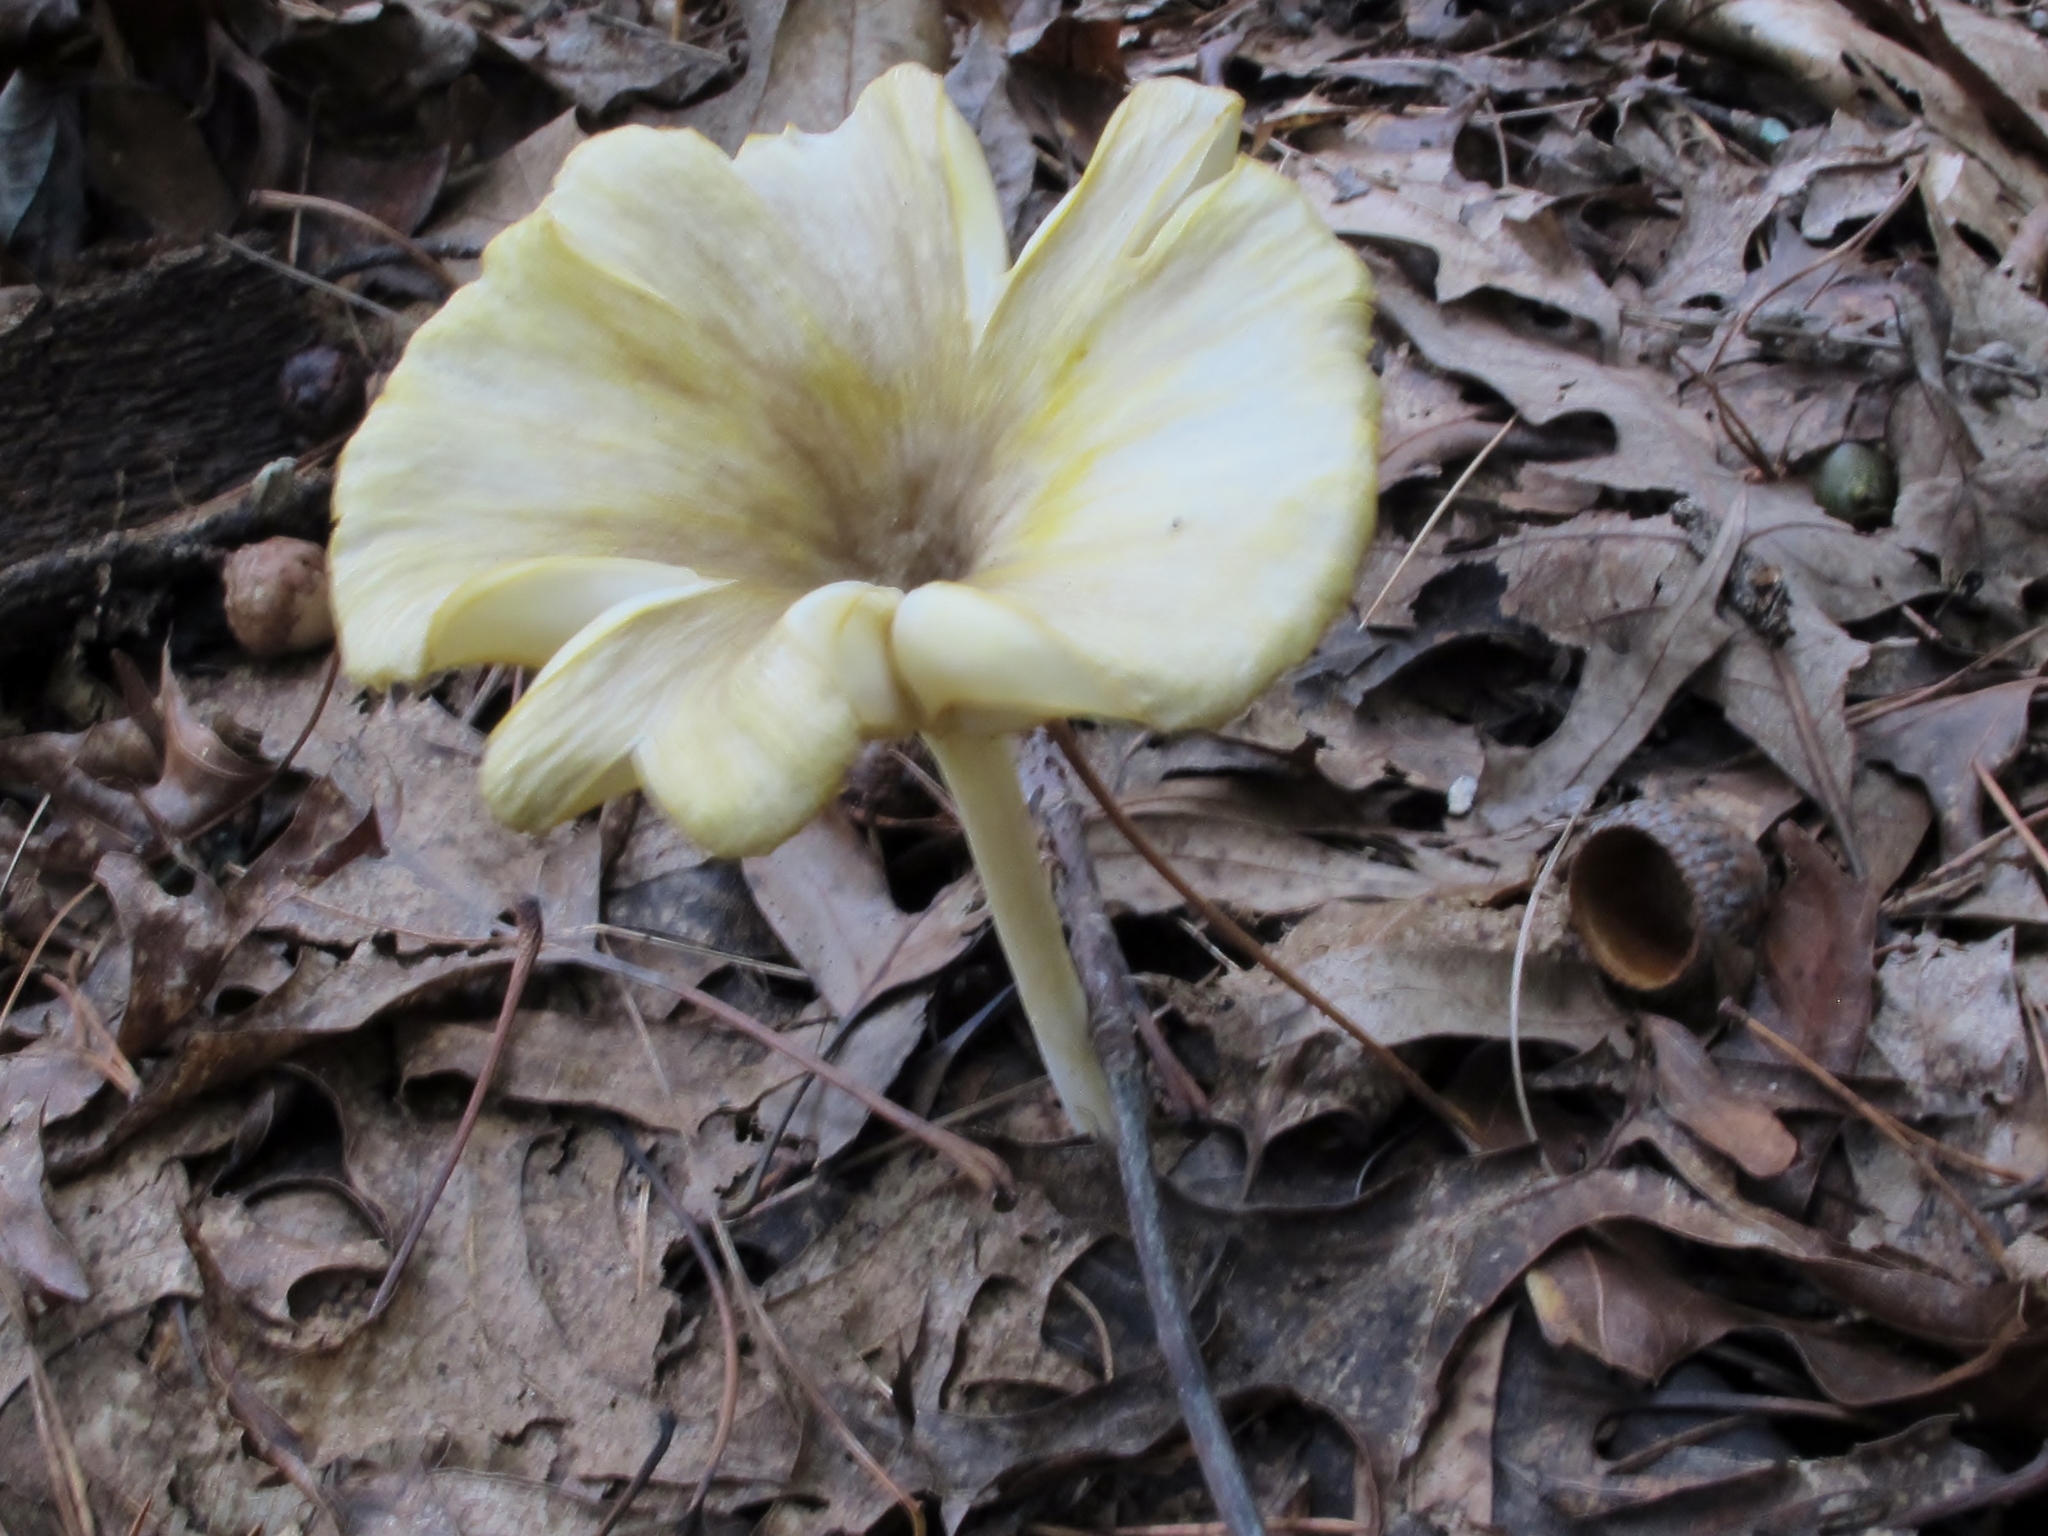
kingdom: Fungi
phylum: Basidiomycota
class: Agaricomycetes
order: Agaricales
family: Marasmiaceae
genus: Gerronema
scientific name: Gerronema strombodes
